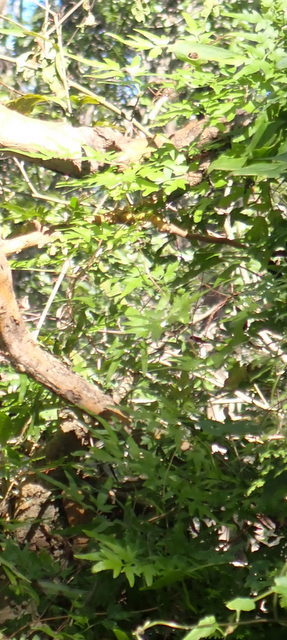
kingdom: Plantae
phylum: Tracheophyta
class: Polypodiopsida
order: Schizaeales
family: Lygodiaceae
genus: Lygodium
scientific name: Lygodium japonicum
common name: Japanese climbing fern
